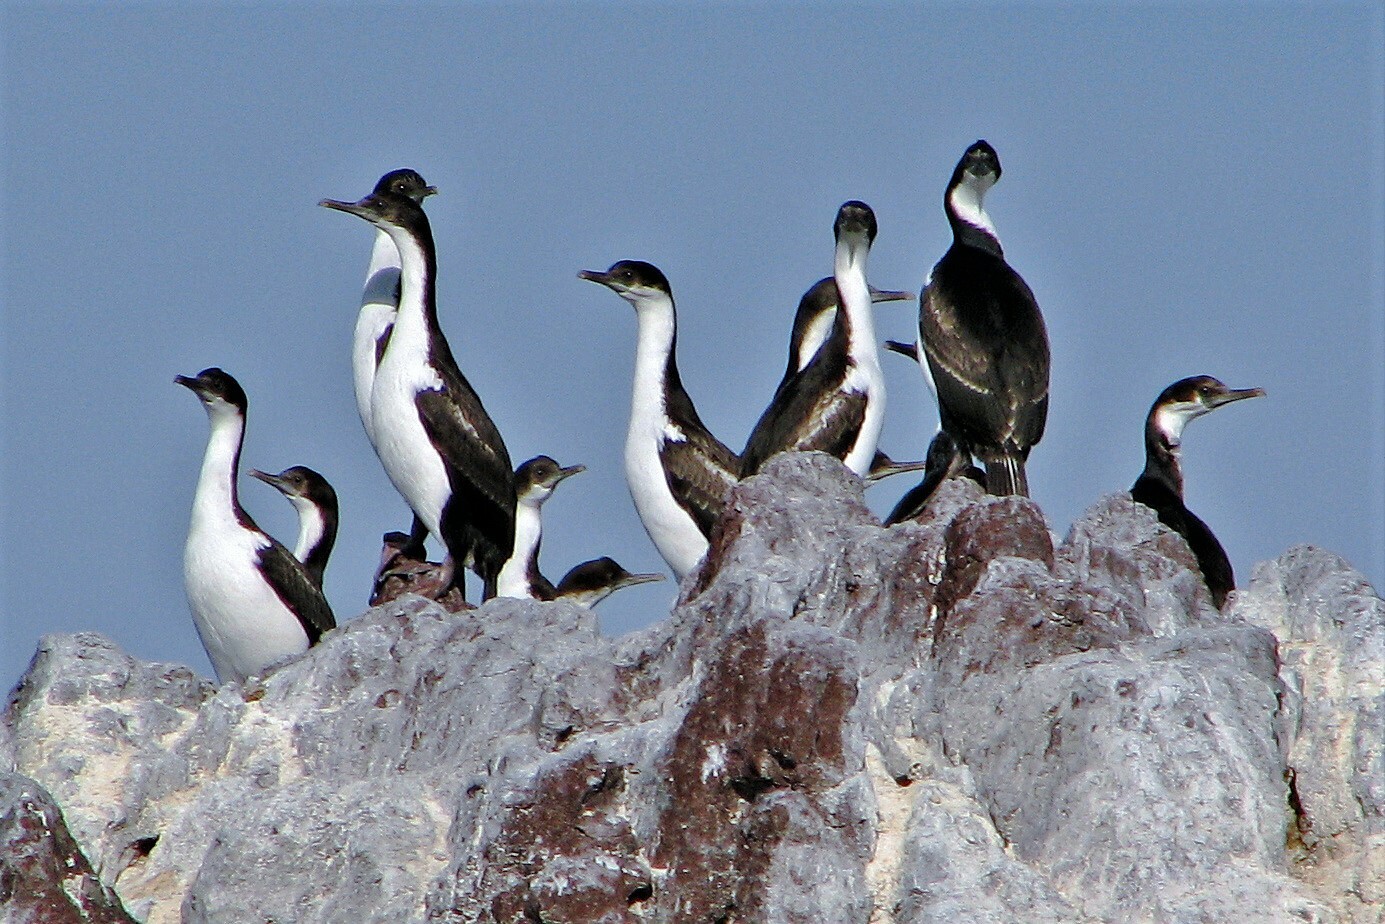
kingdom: Animalia
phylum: Chordata
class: Aves
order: Suliformes
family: Phalacrocoracidae
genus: Leucocarbo
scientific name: Leucocarbo atriceps
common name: Imperial shag
